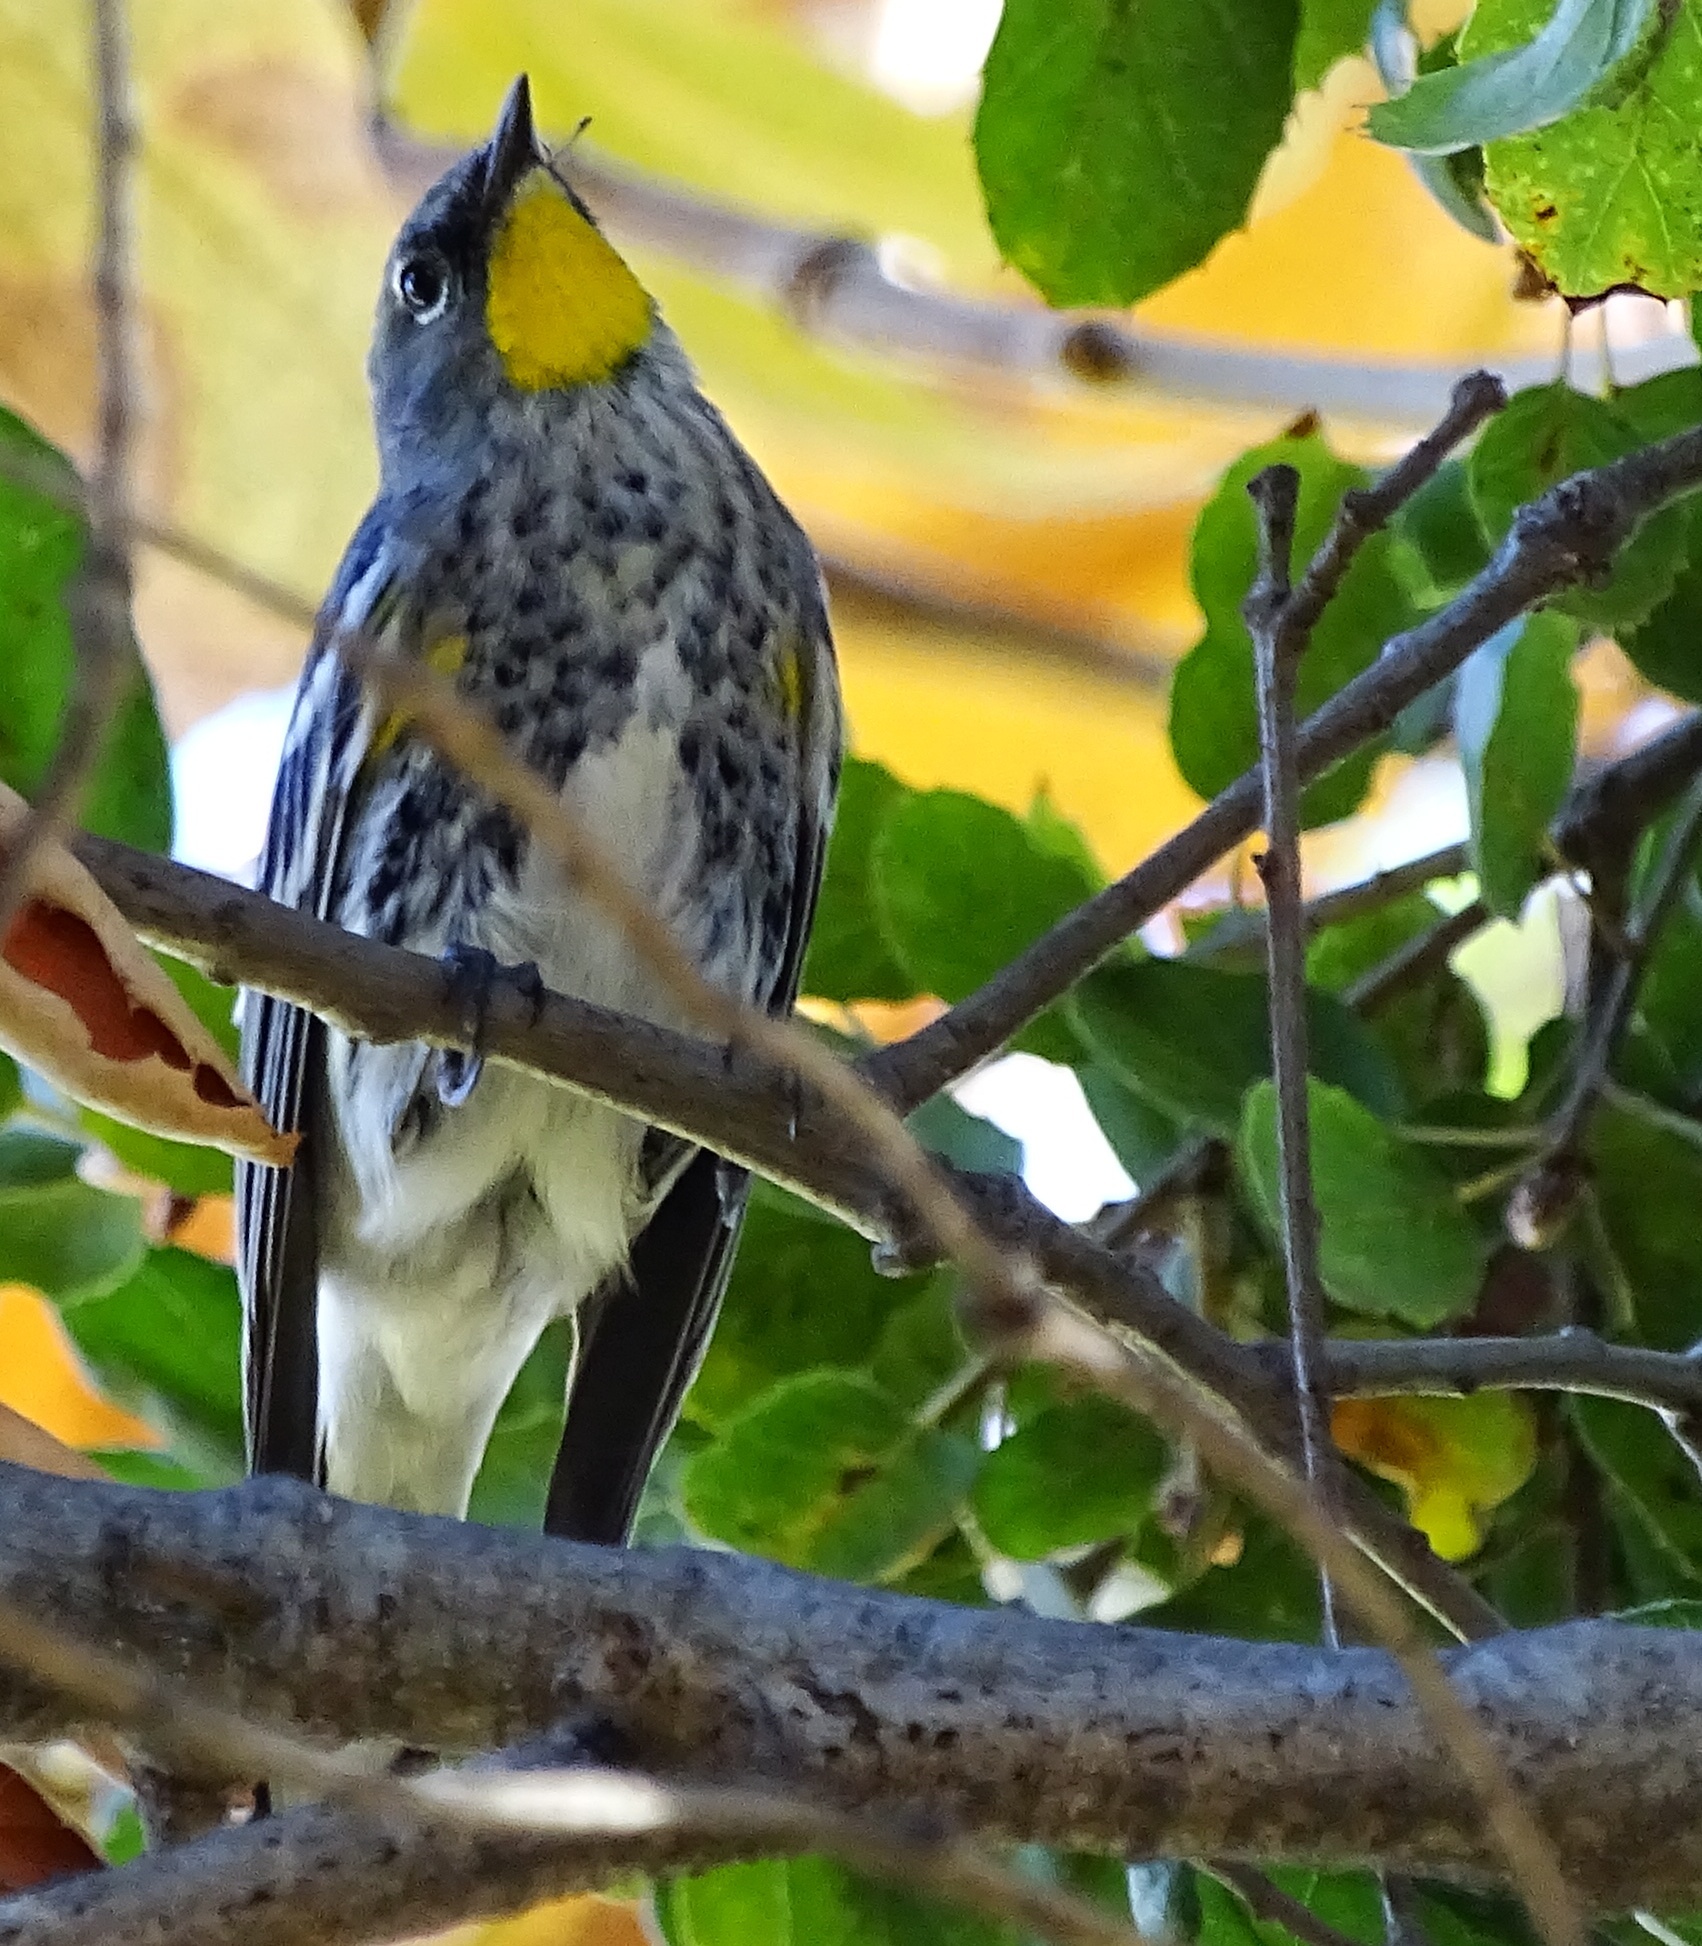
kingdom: Animalia
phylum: Chordata
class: Aves
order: Passeriformes
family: Parulidae
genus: Setophaga
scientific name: Setophaga coronata
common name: Myrtle warbler
